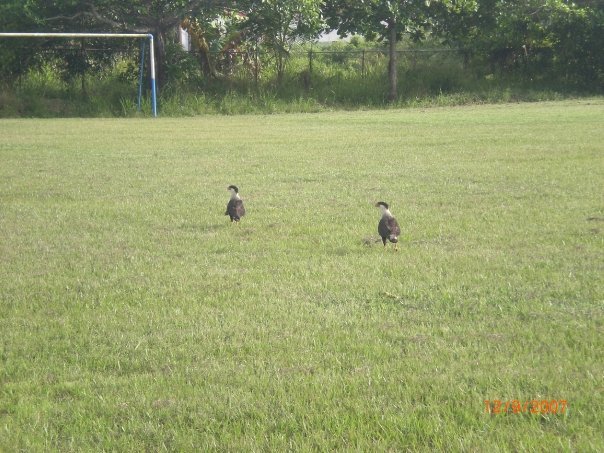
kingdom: Animalia
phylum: Chordata
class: Aves
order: Falconiformes
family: Falconidae
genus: Caracara
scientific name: Caracara plancus
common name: Southern caracara
